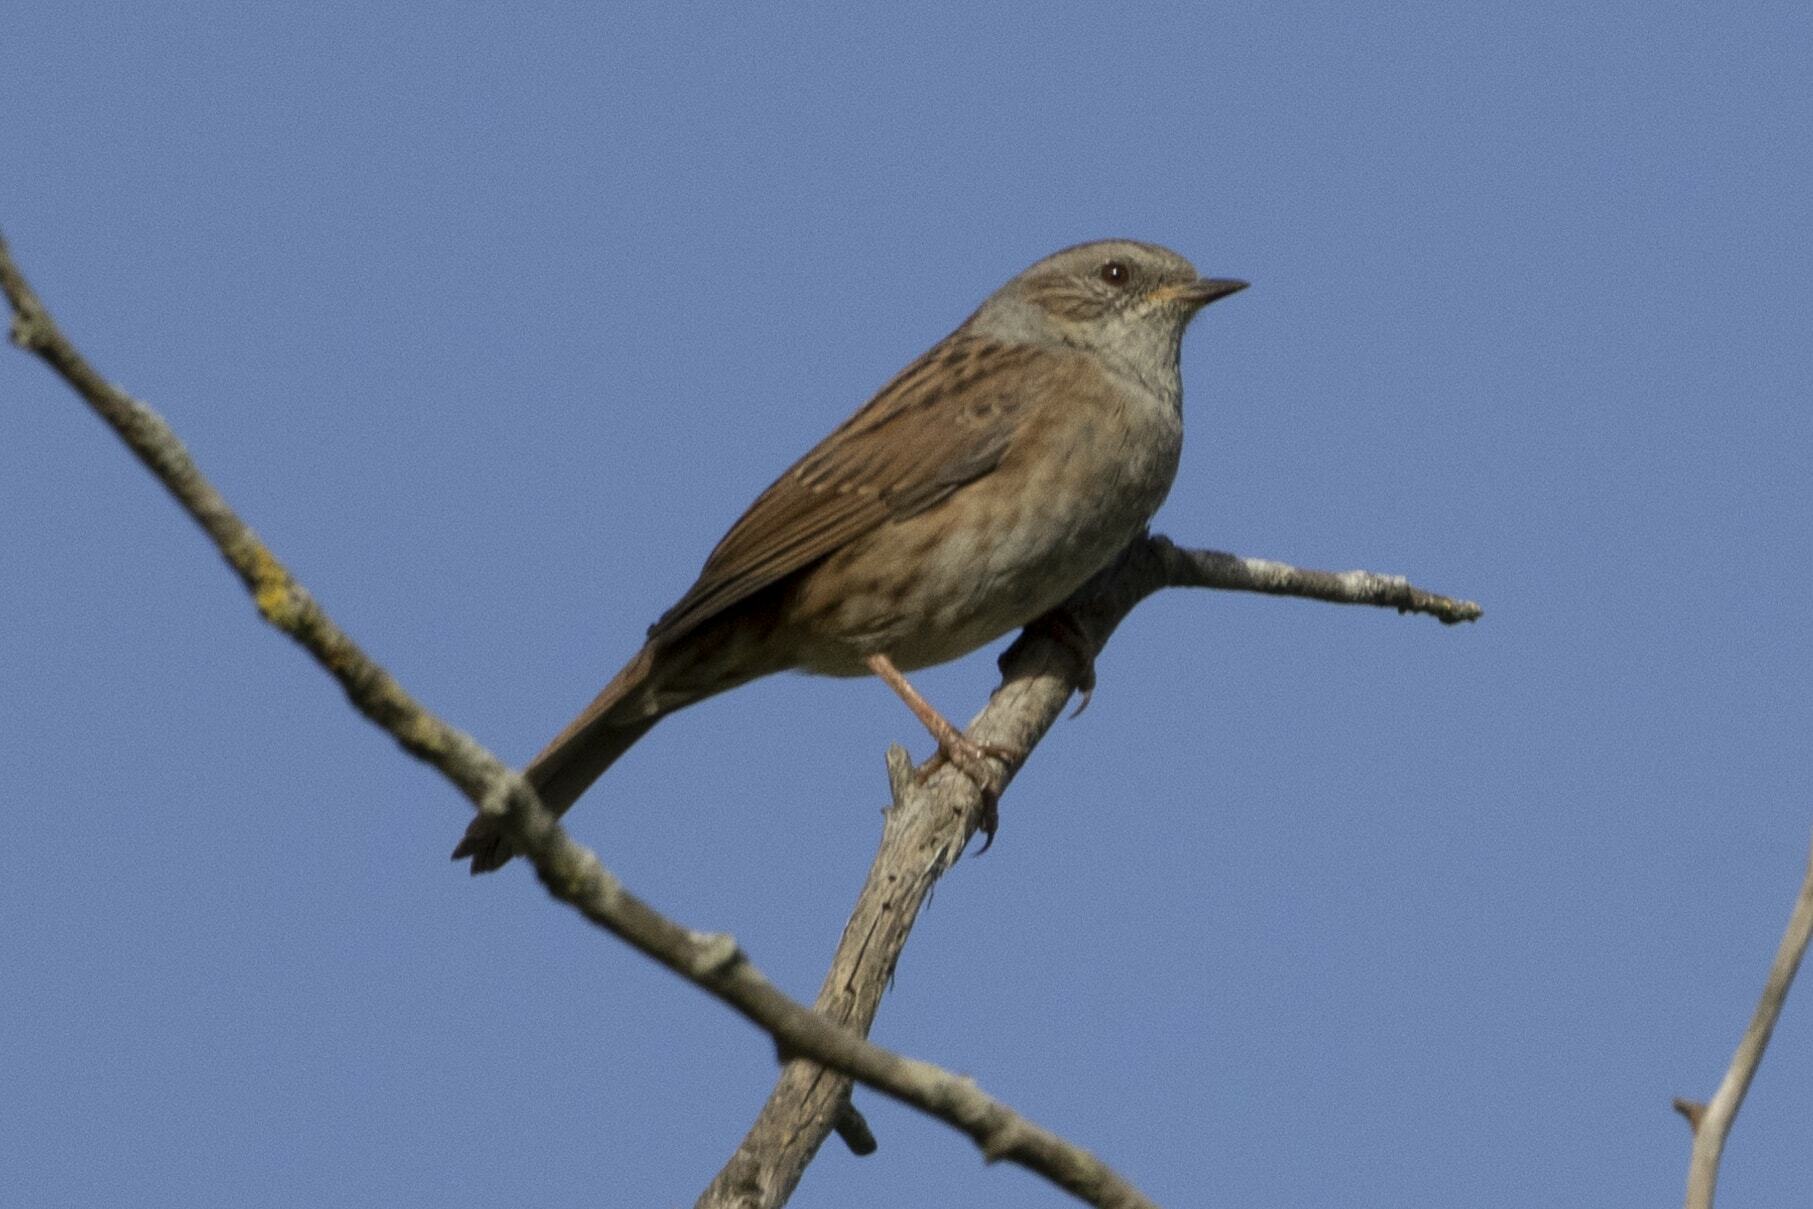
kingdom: Animalia
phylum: Chordata
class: Aves
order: Passeriformes
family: Prunellidae
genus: Prunella
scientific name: Prunella modularis
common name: Dunnock
